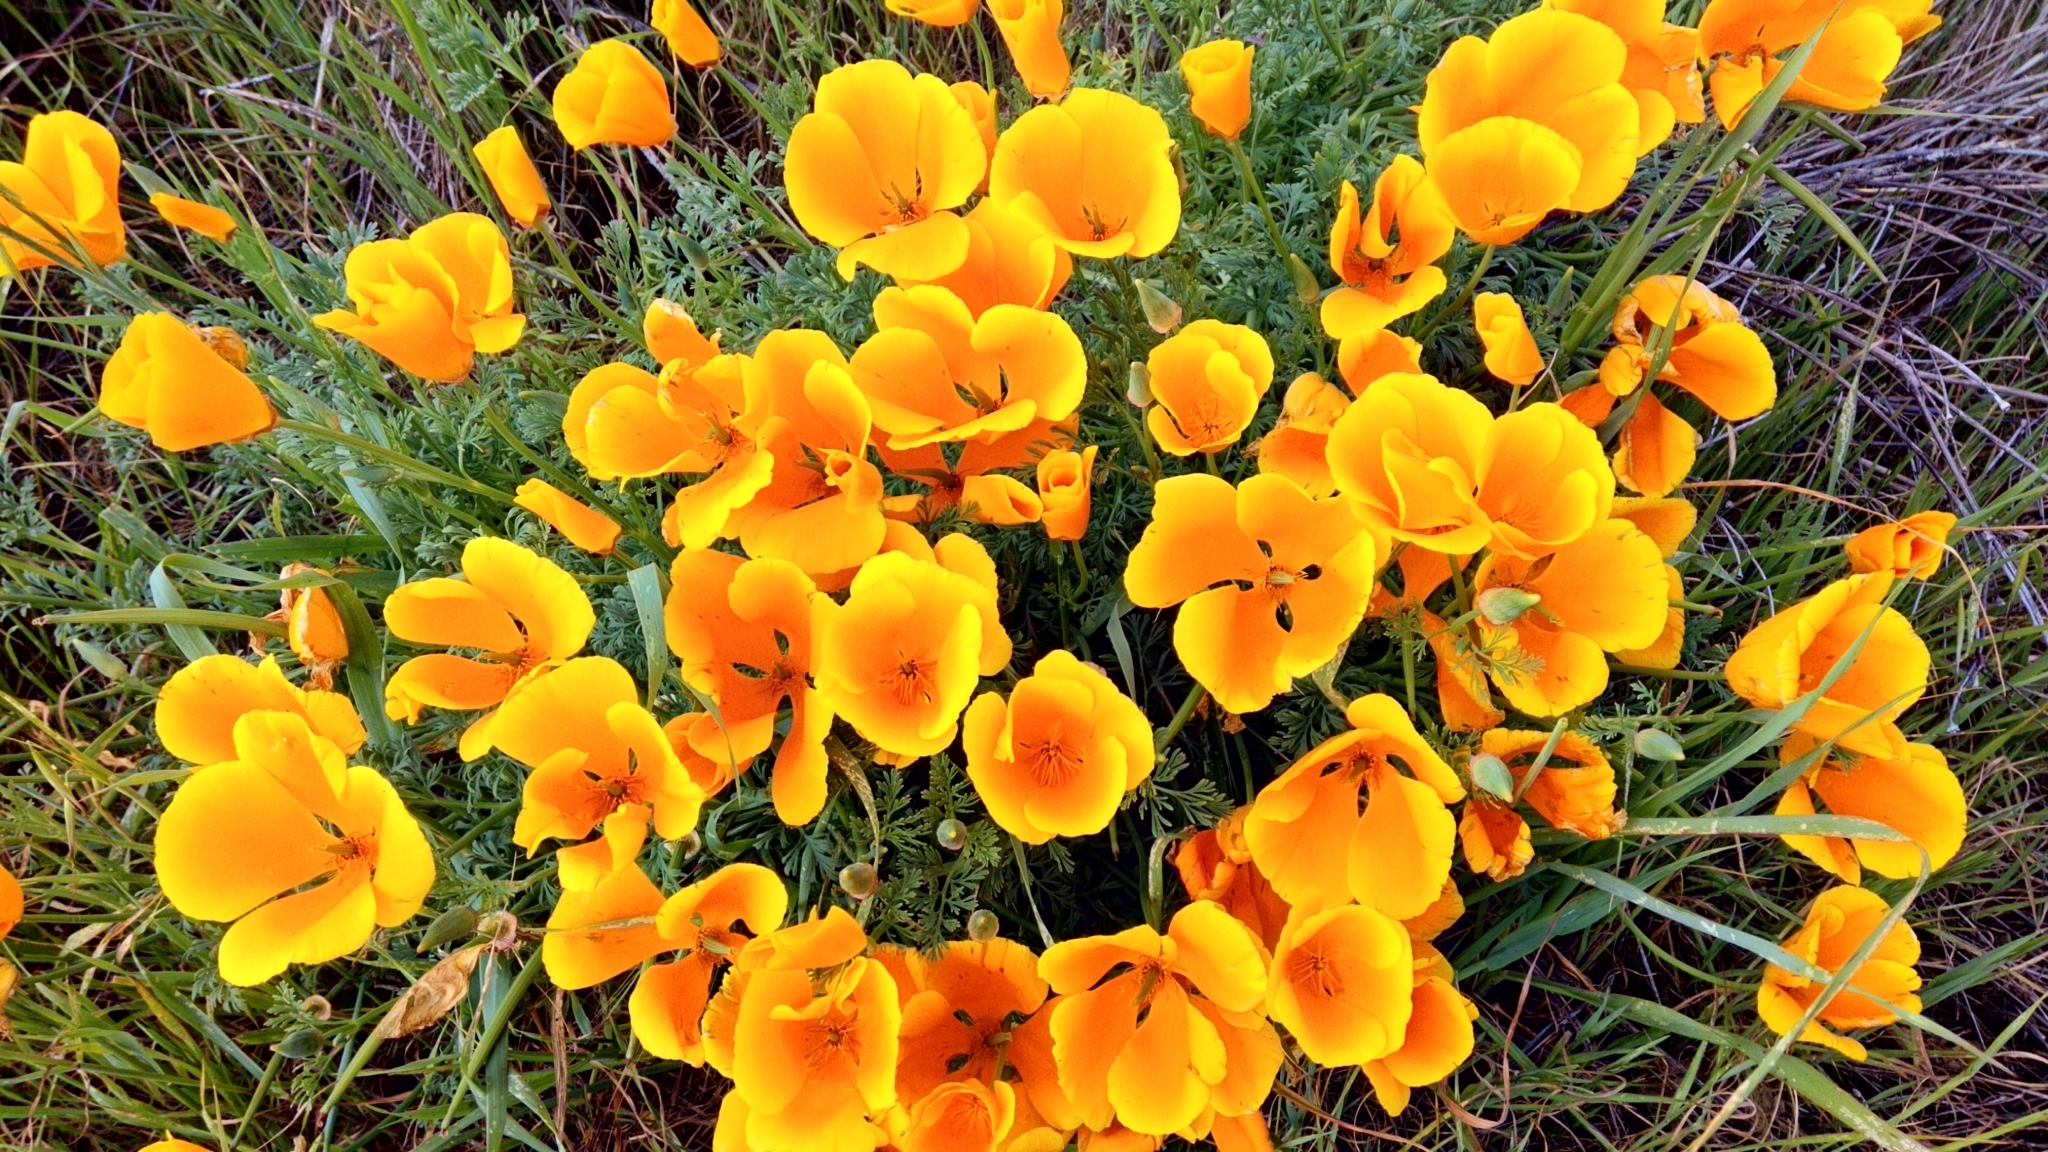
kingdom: Plantae
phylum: Tracheophyta
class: Magnoliopsida
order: Ranunculales
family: Papaveraceae
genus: Eschscholzia
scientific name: Eschscholzia californica
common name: California poppy
